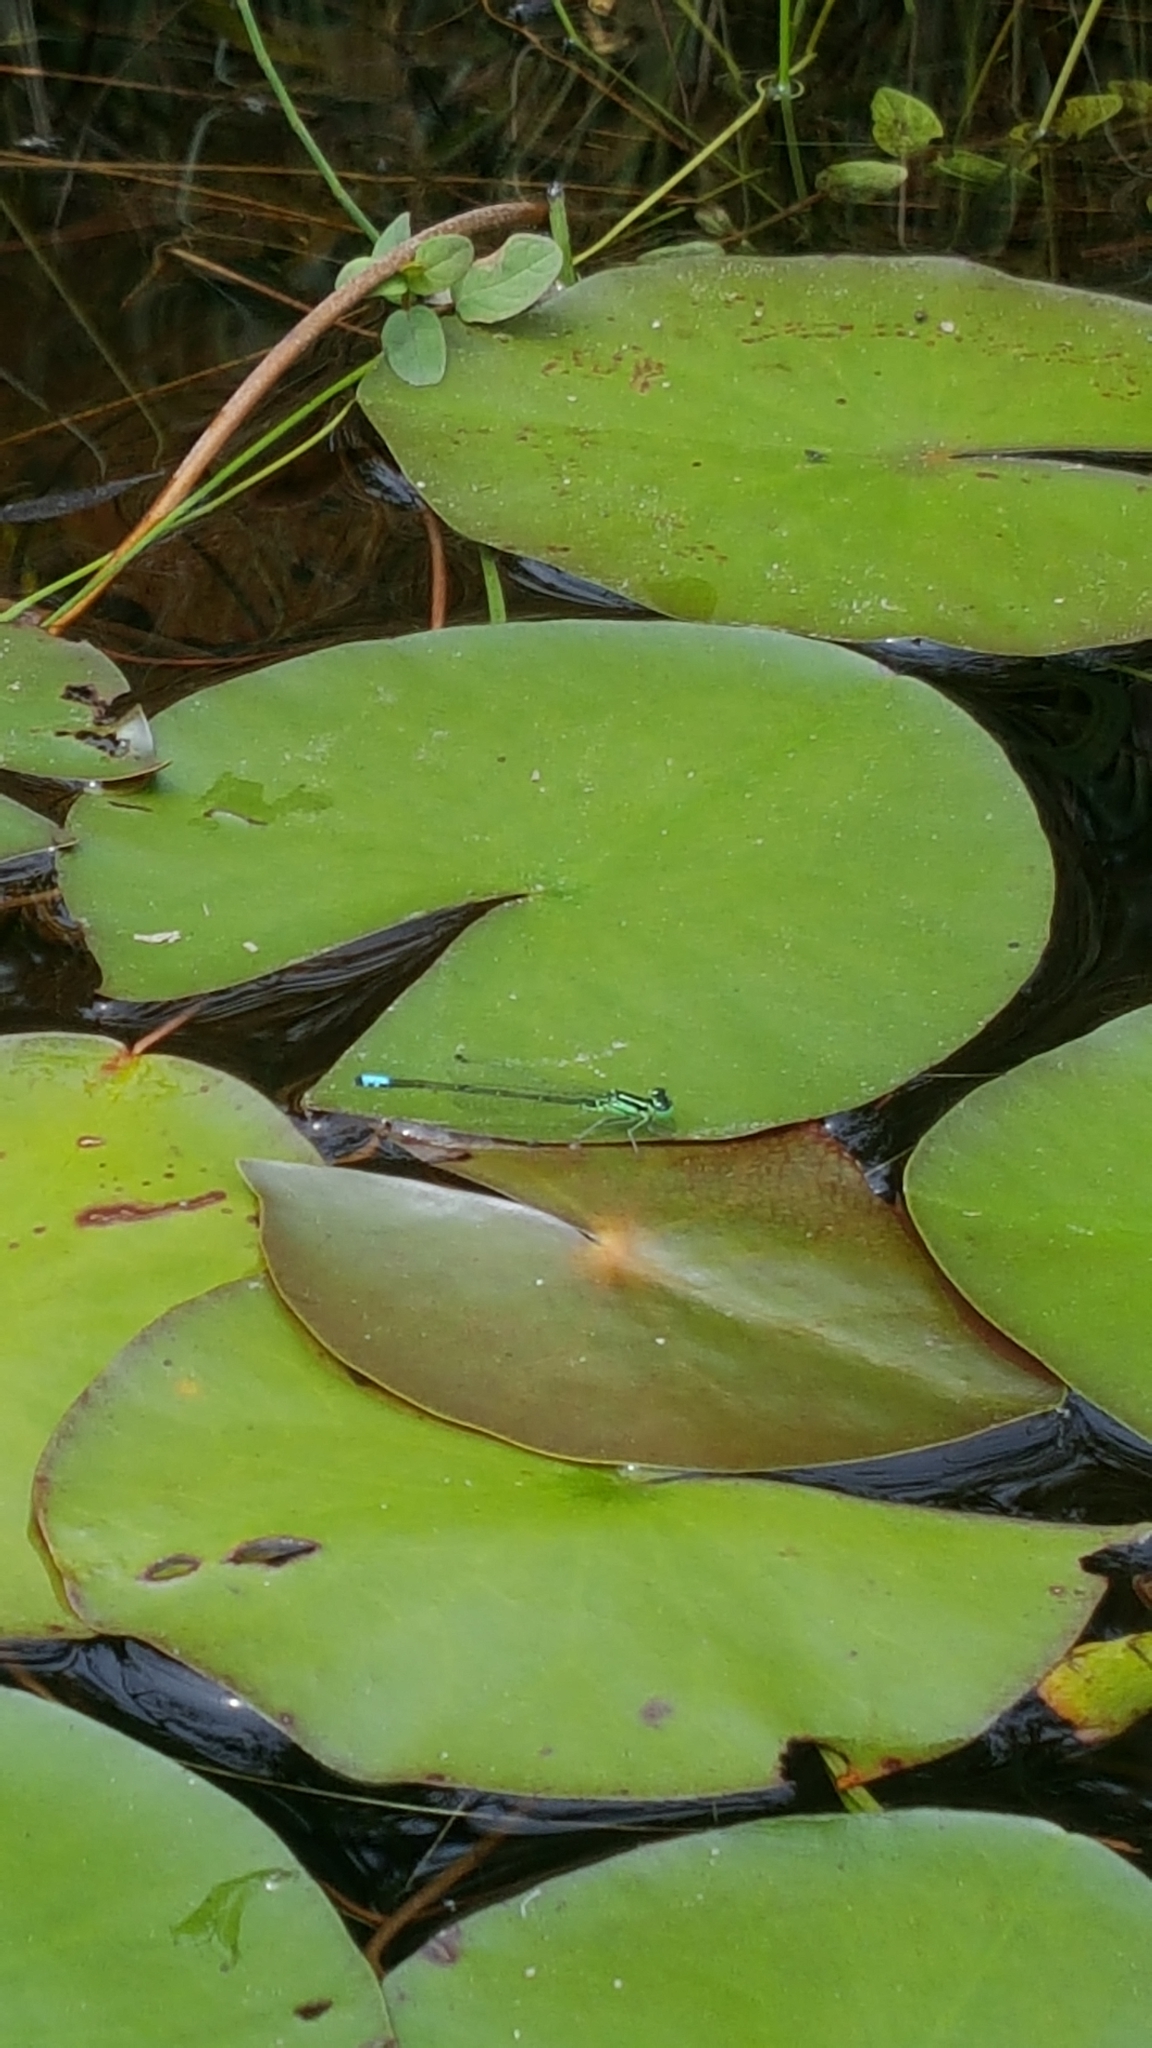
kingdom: Animalia
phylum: Arthropoda
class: Insecta
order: Odonata
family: Coenagrionidae
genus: Ischnura
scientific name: Ischnura verticalis
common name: Eastern forktail
